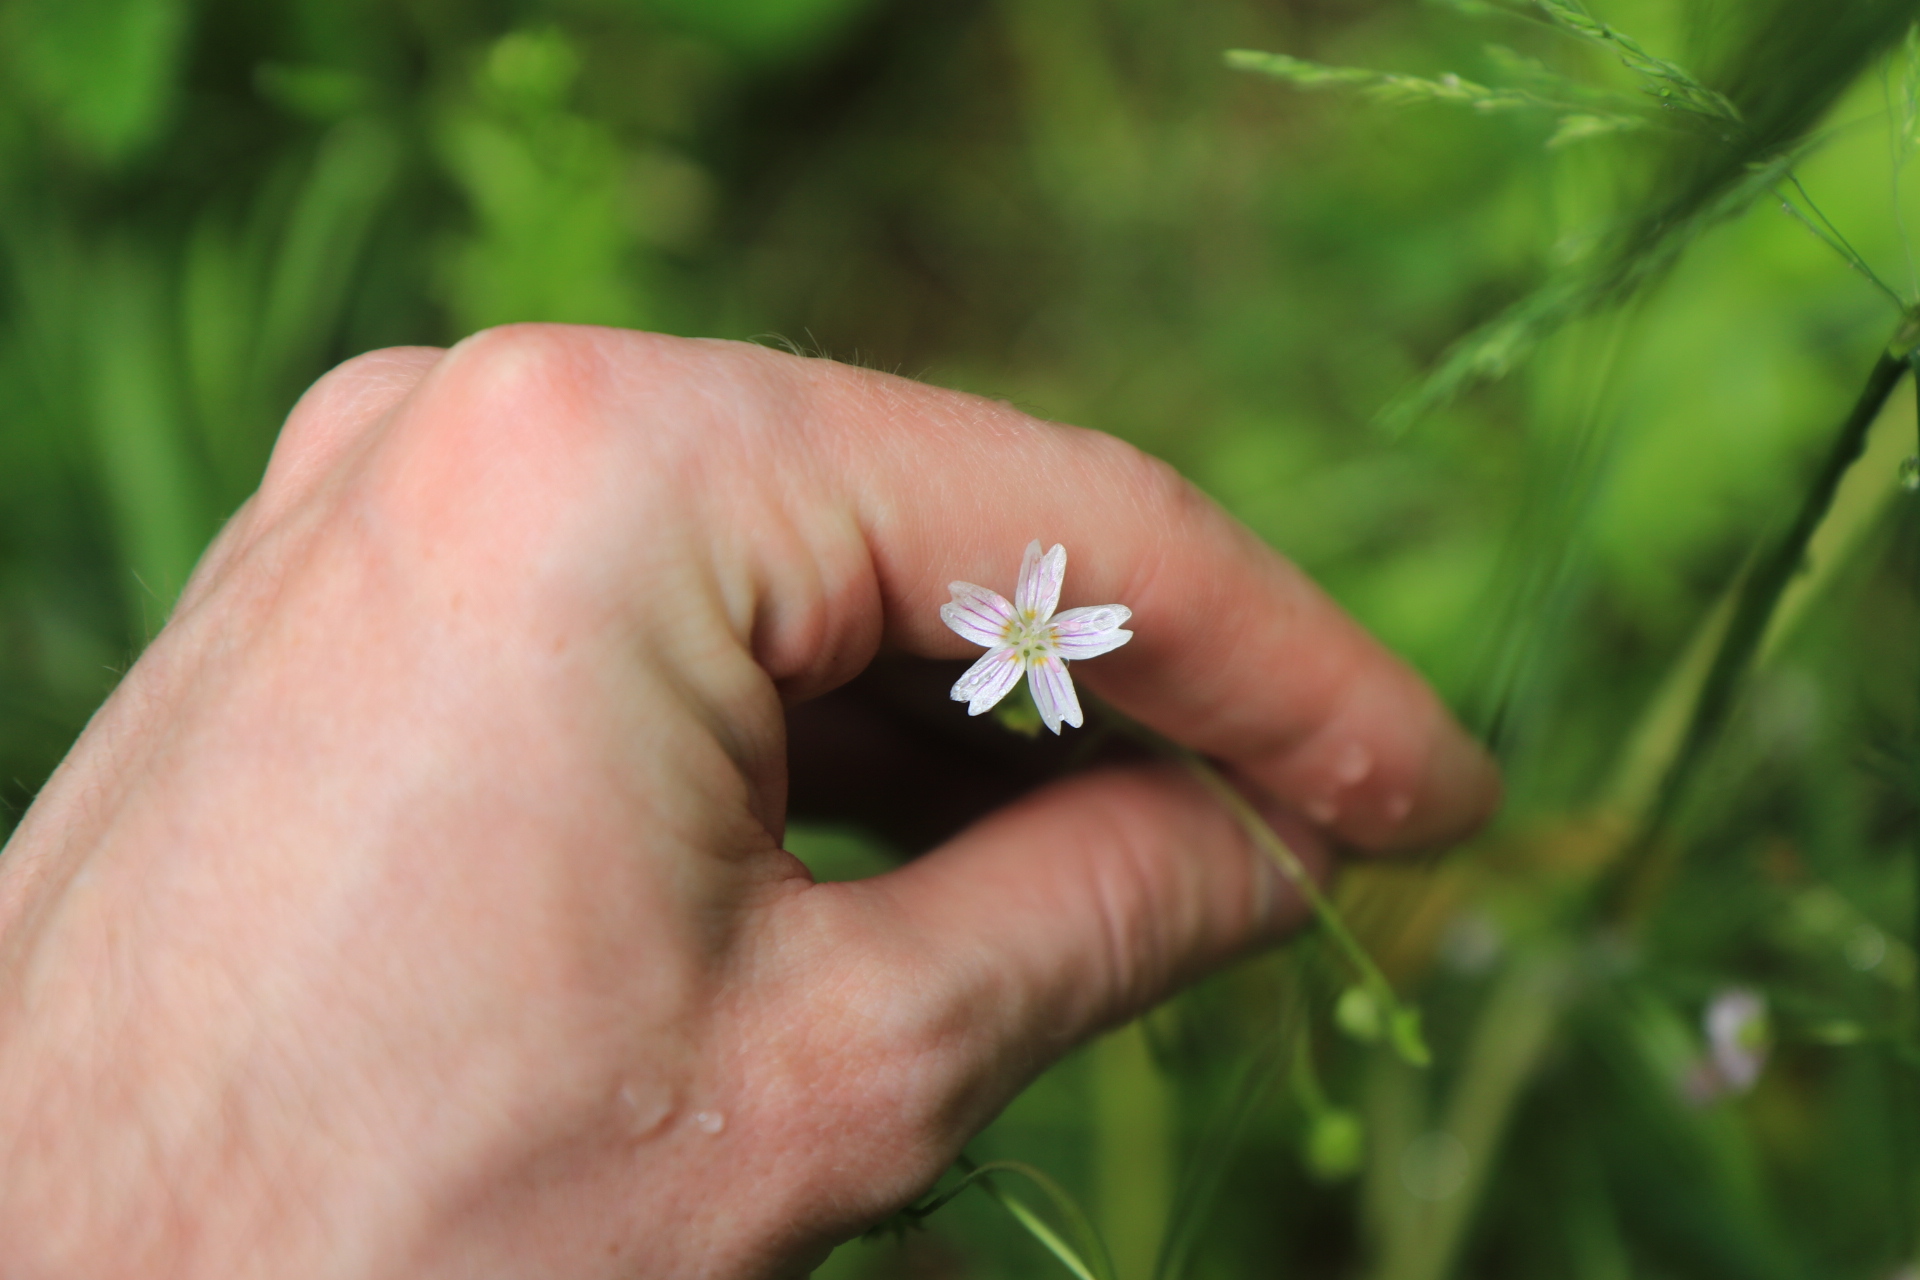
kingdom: Plantae
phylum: Tracheophyta
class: Magnoliopsida
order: Caryophyllales
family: Montiaceae
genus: Claytonia
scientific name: Claytonia sibirica
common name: Pink purslane
